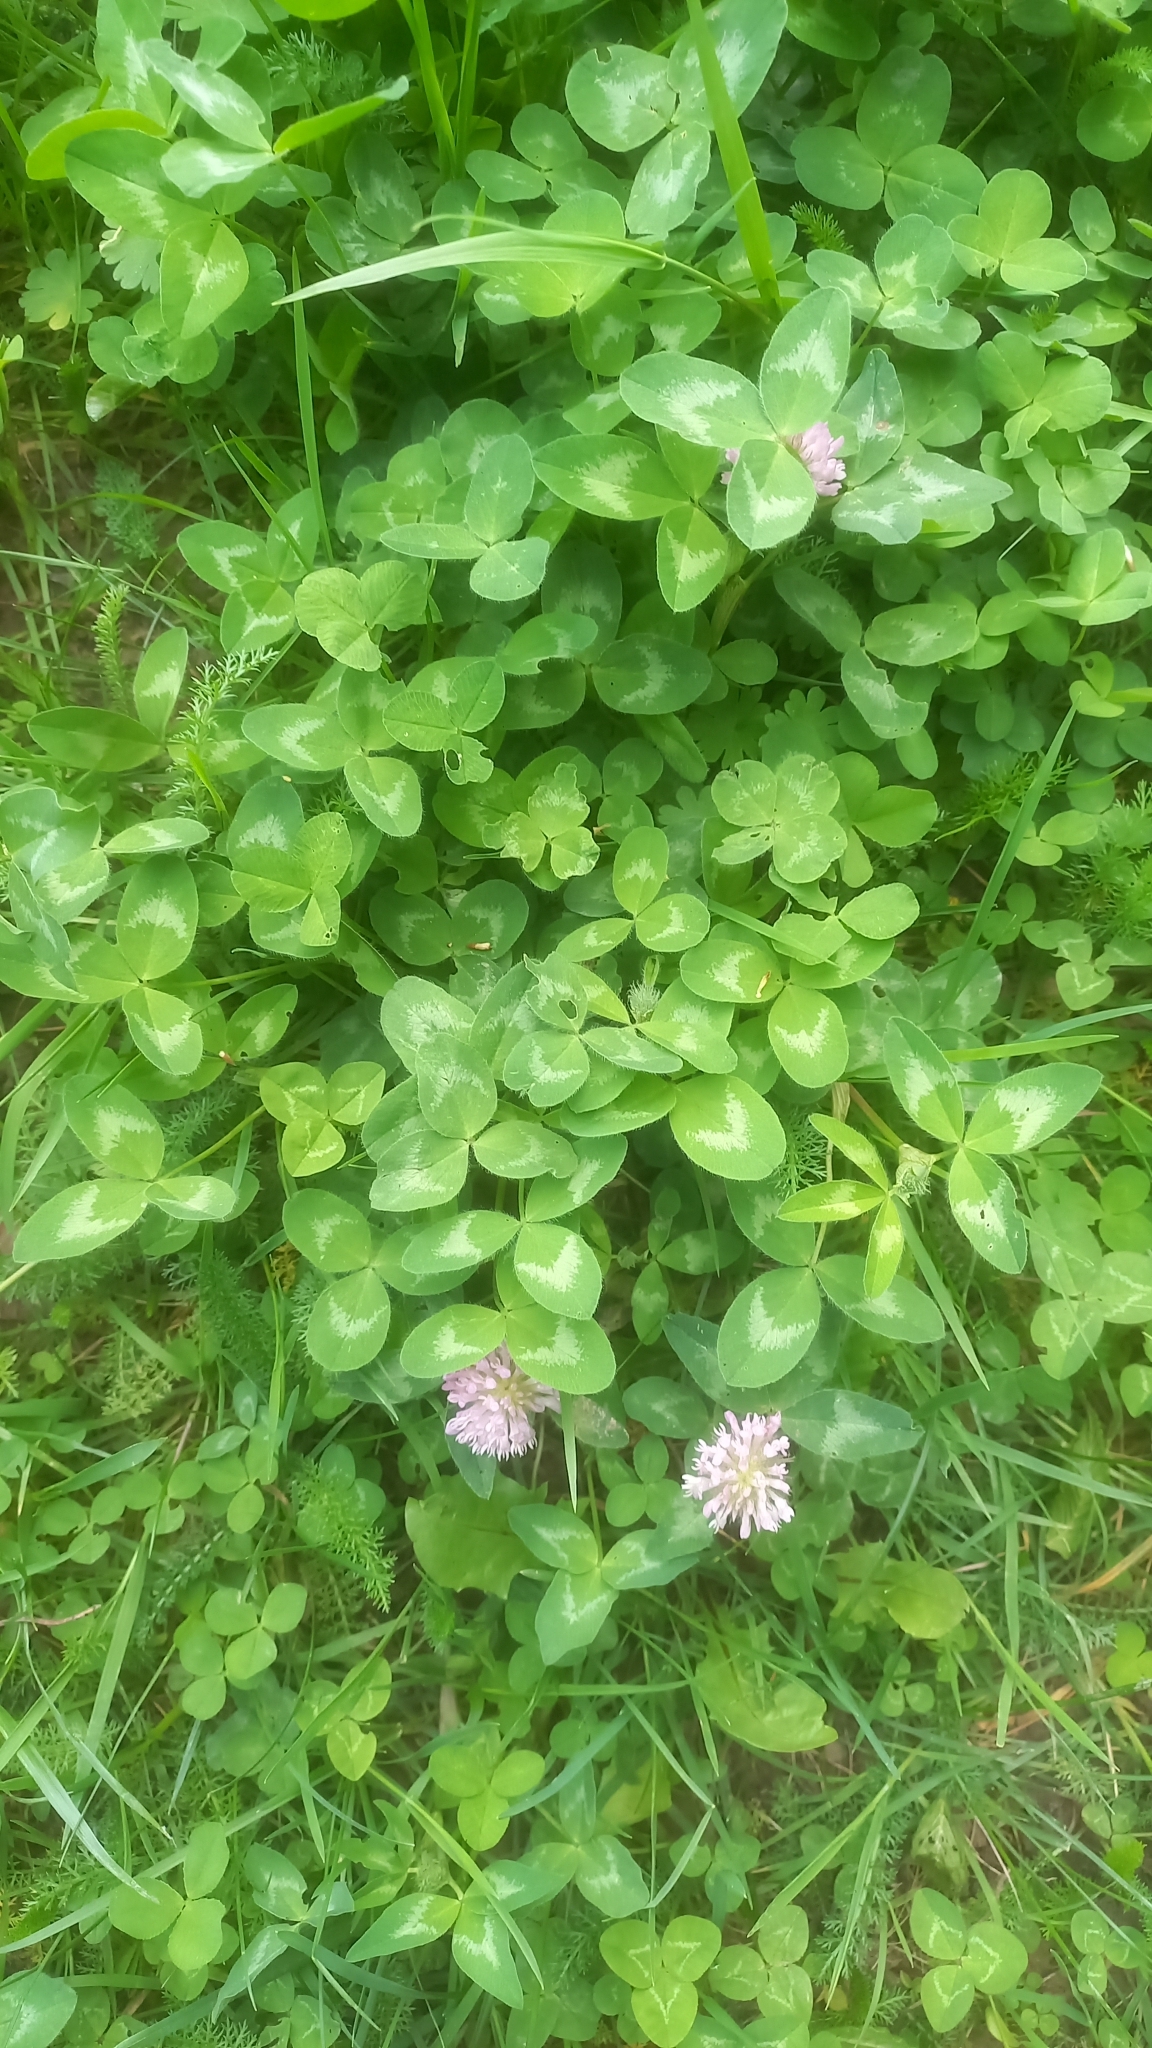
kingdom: Plantae
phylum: Tracheophyta
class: Magnoliopsida
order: Fabales
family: Fabaceae
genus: Trifolium
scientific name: Trifolium pratense
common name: Red clover
